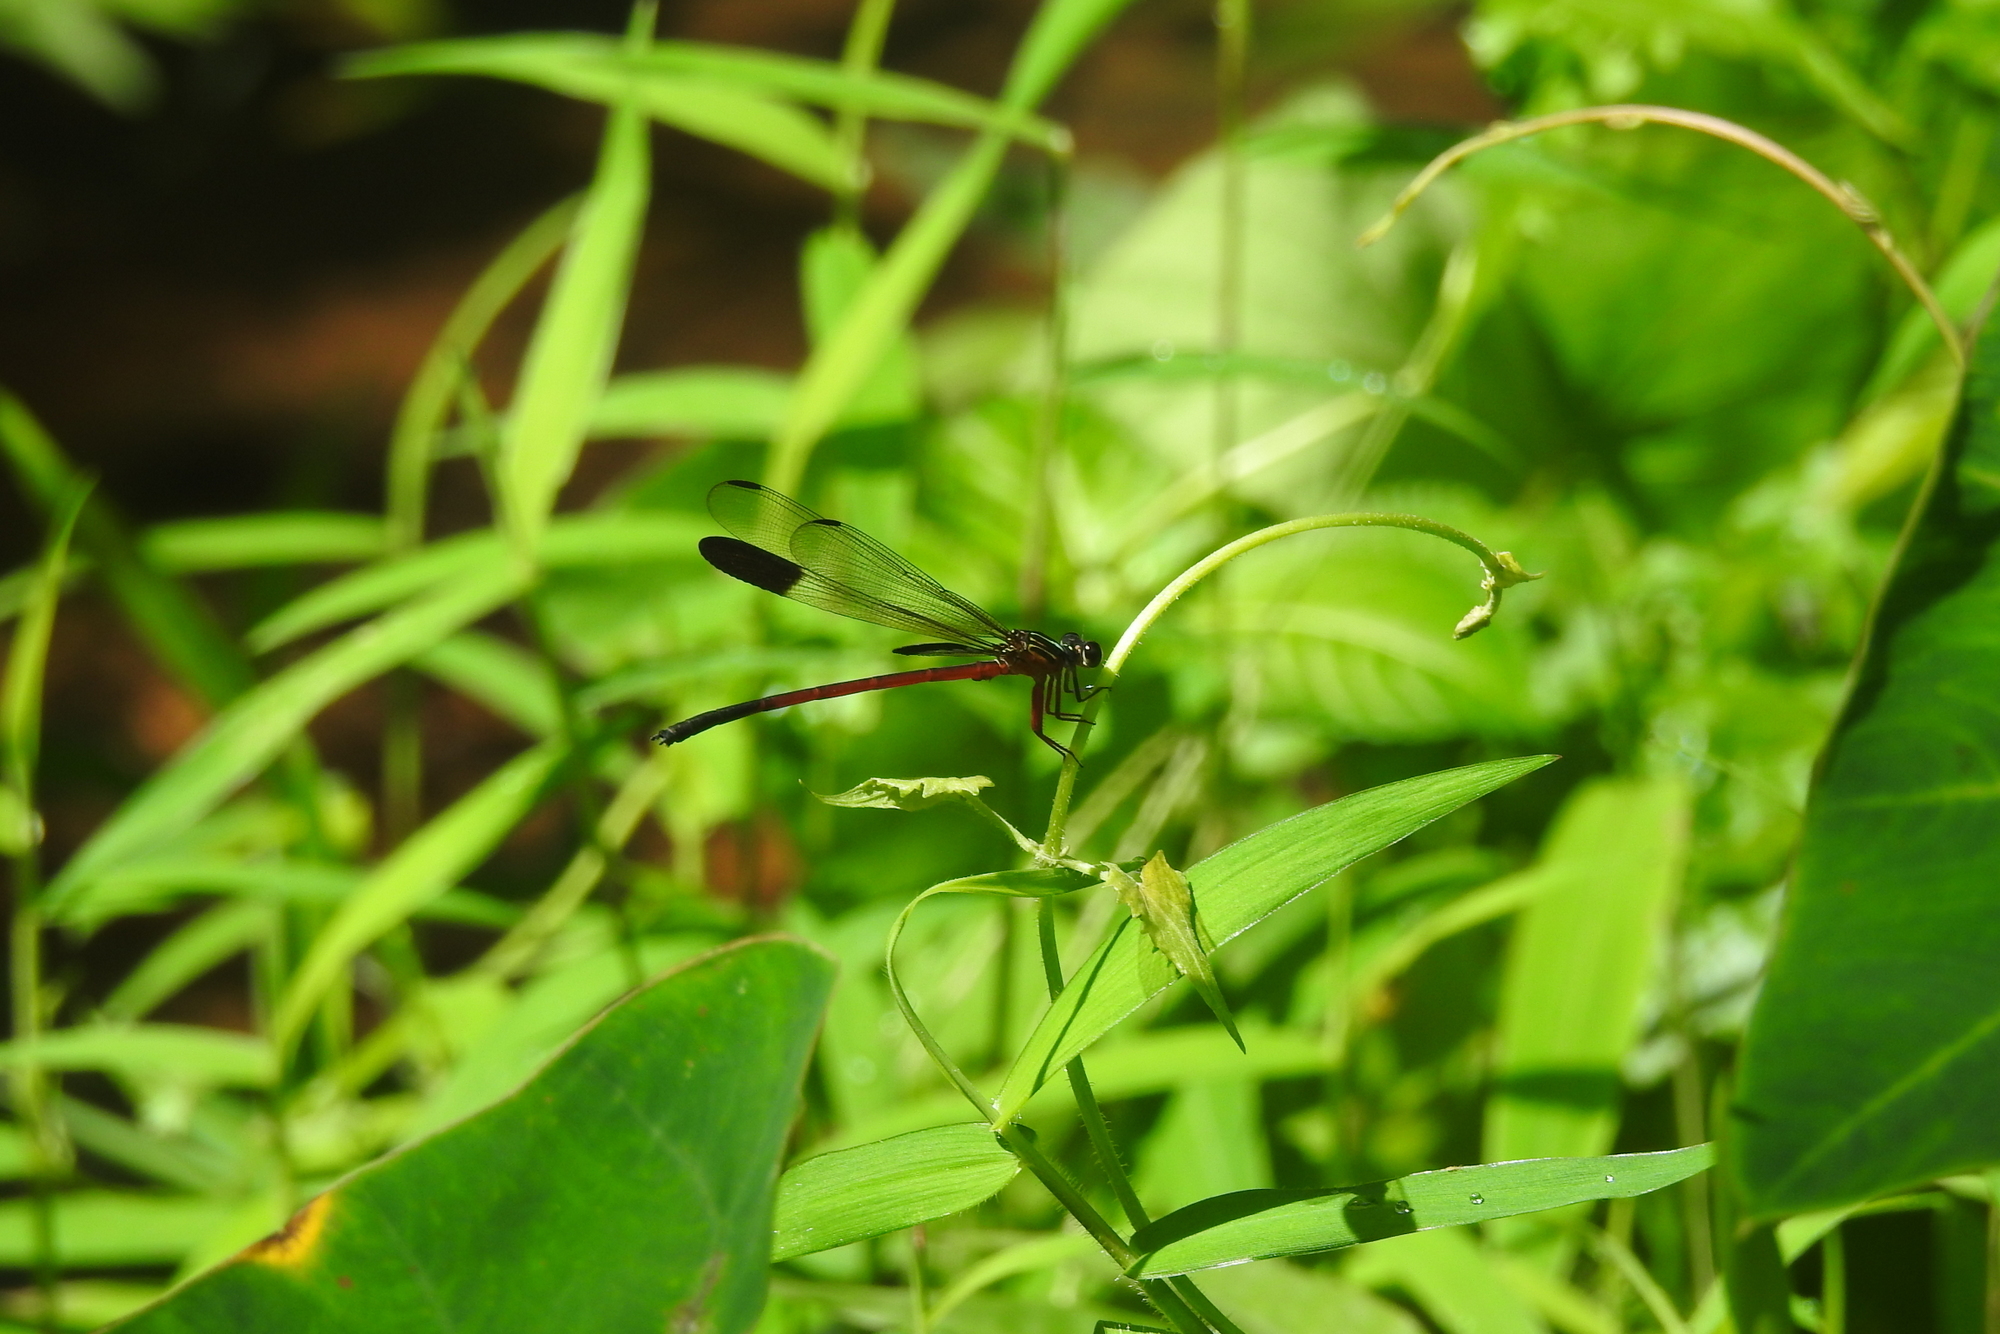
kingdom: Animalia
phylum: Arthropoda
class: Insecta
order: Odonata
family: Euphaeidae
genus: Euphaea
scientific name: Euphaea fraseri
